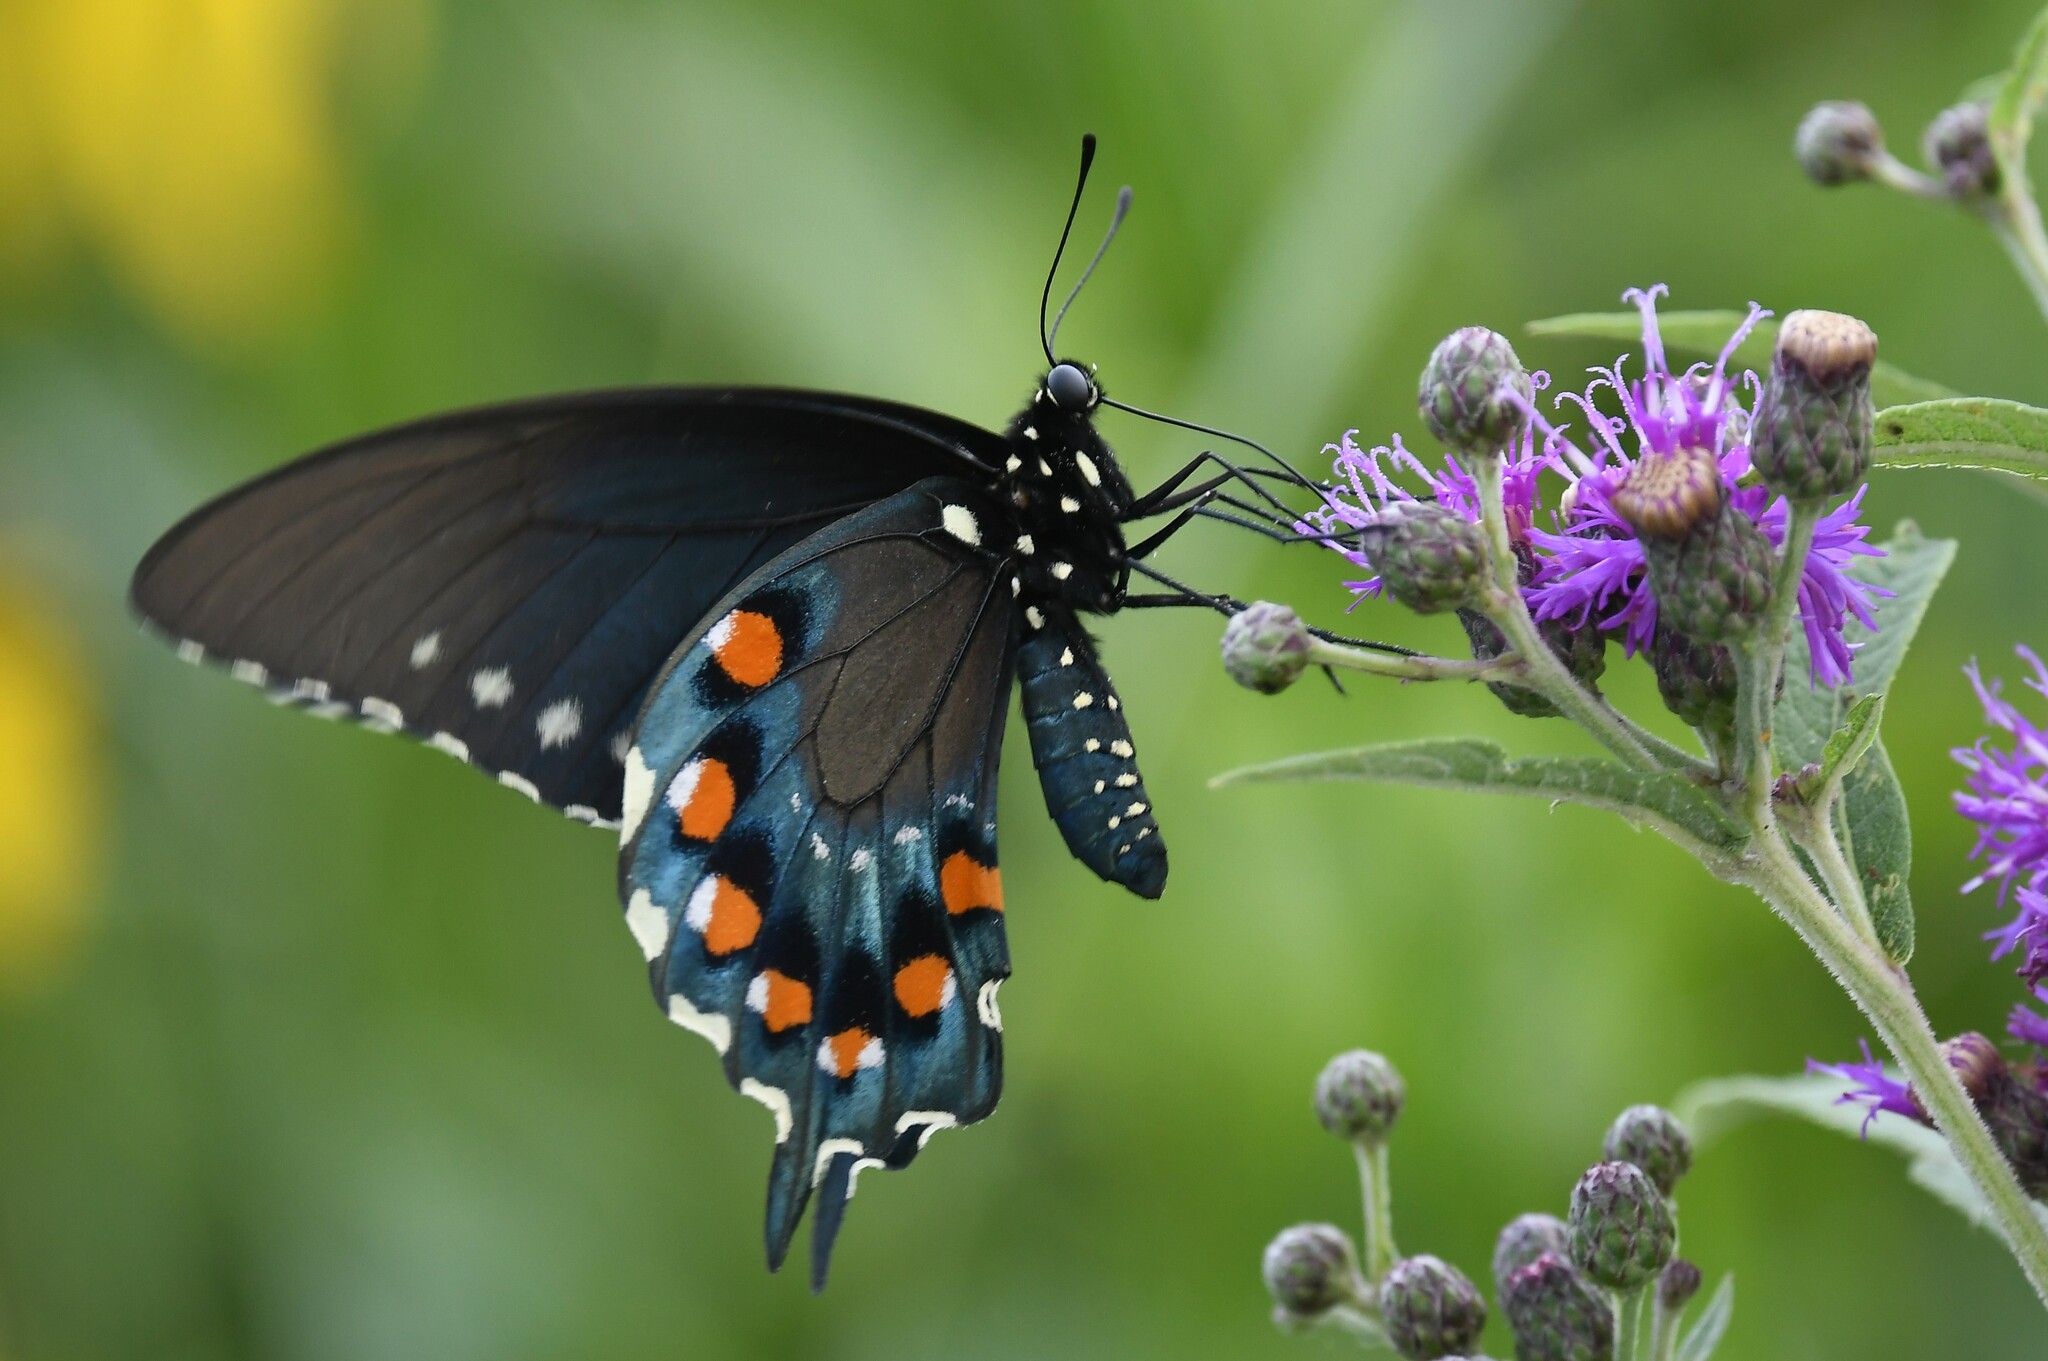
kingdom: Animalia
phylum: Arthropoda
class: Insecta
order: Lepidoptera
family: Papilionidae
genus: Battus
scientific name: Battus philenor
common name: Pipevine swallowtail
